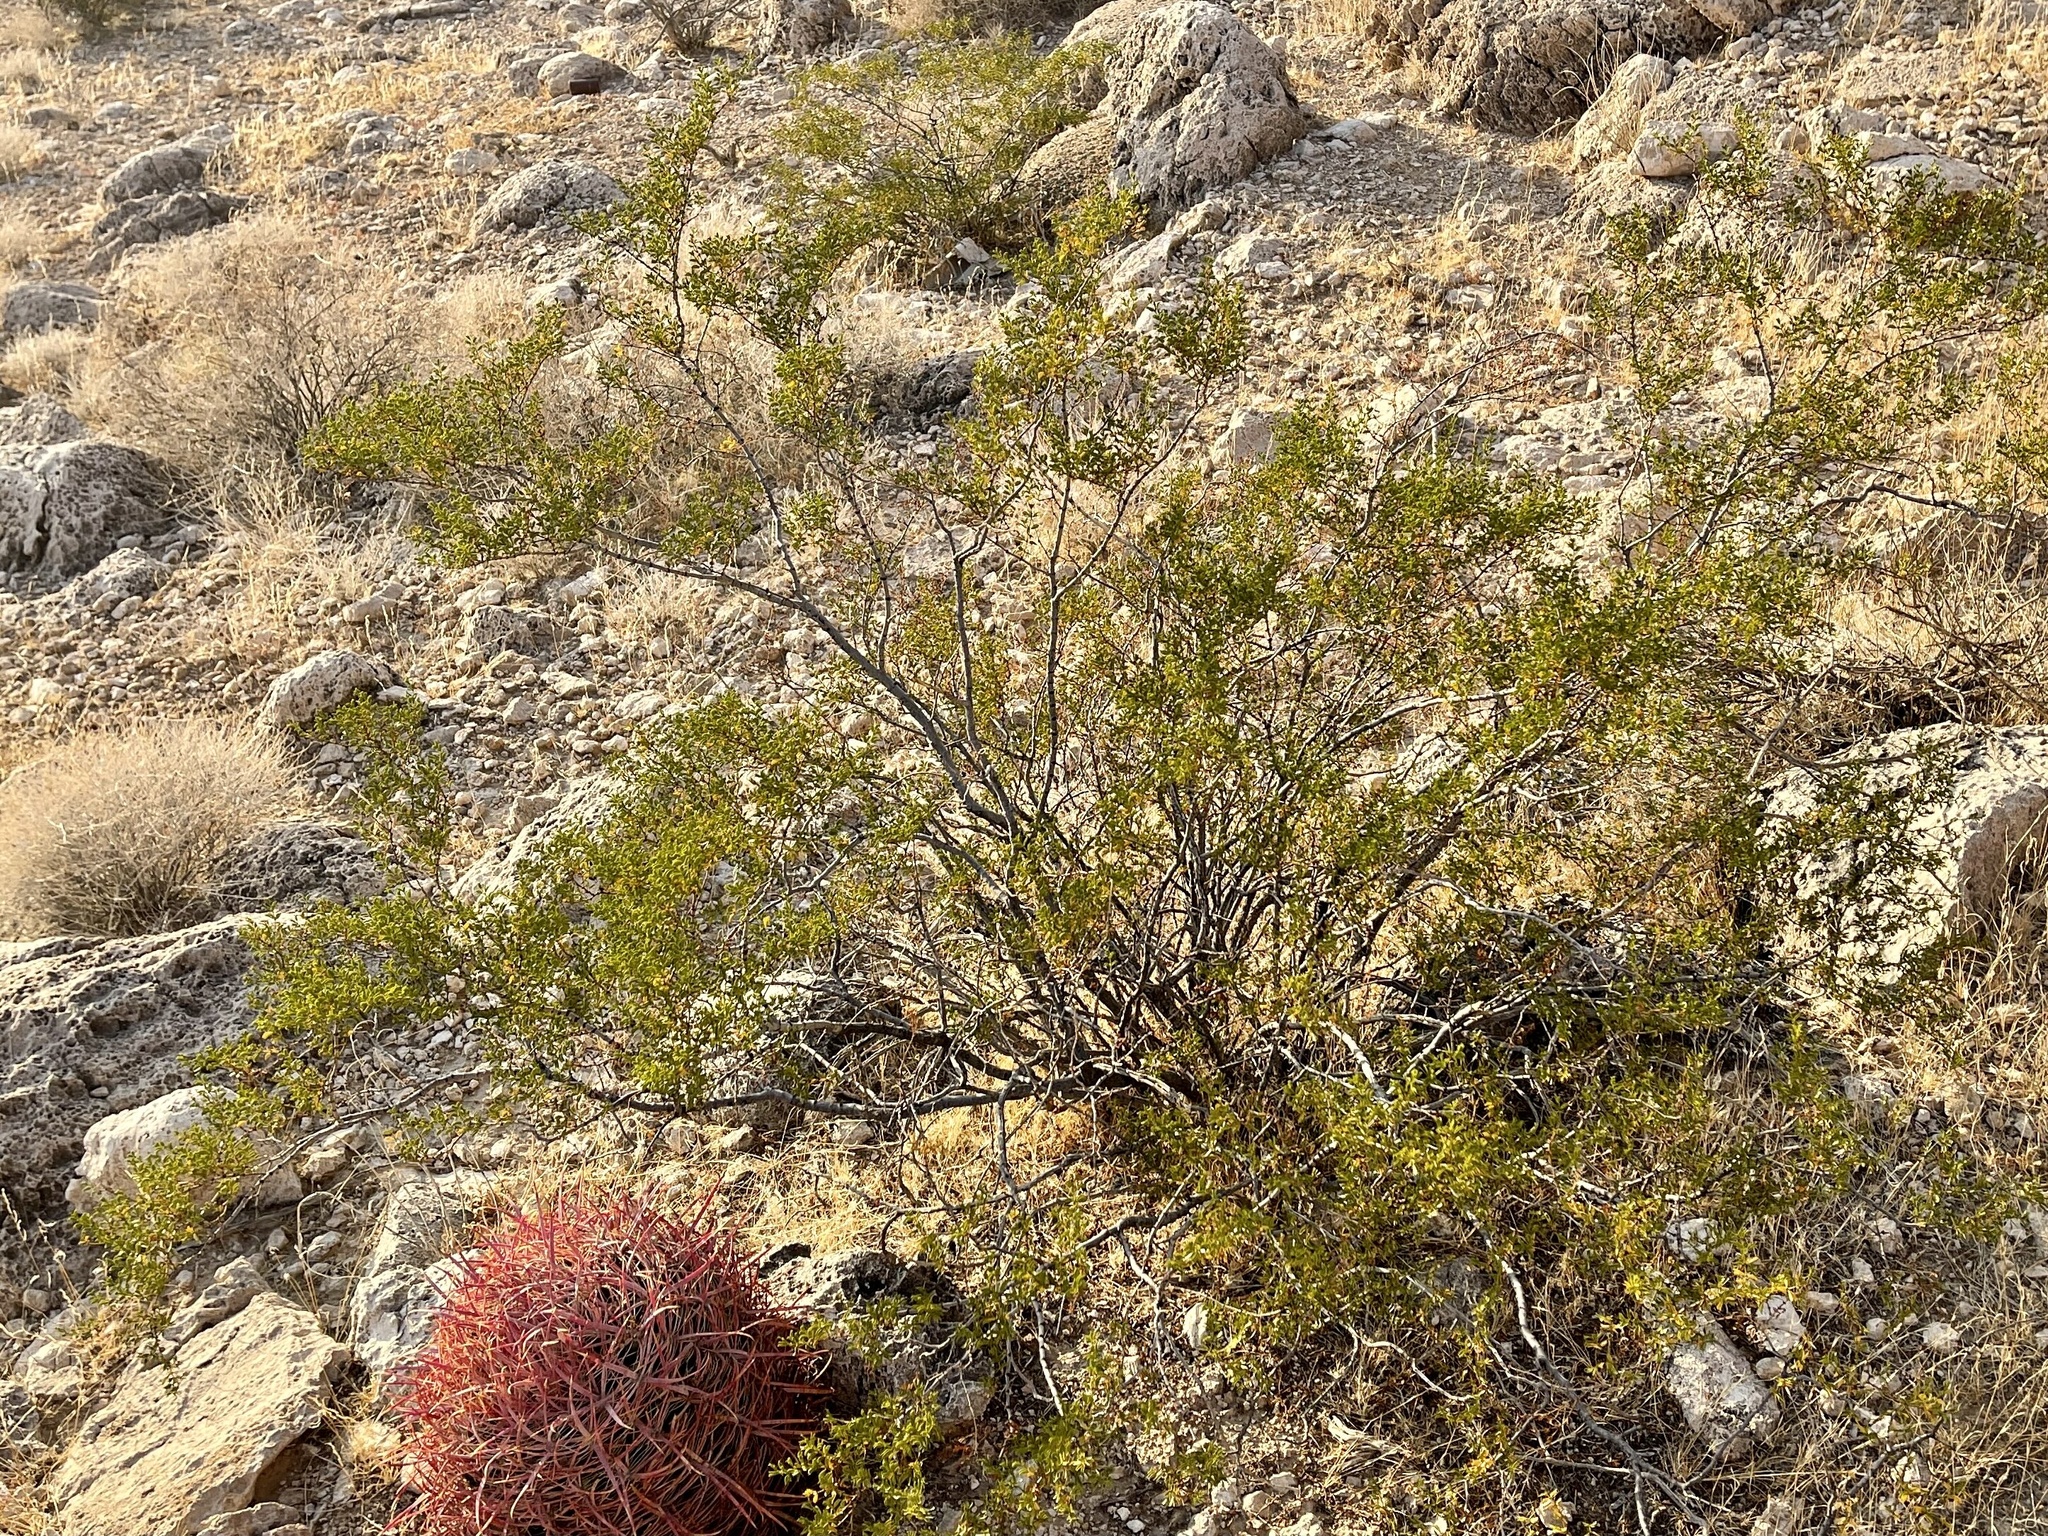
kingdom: Plantae
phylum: Tracheophyta
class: Magnoliopsida
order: Zygophyllales
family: Zygophyllaceae
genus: Larrea
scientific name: Larrea tridentata
